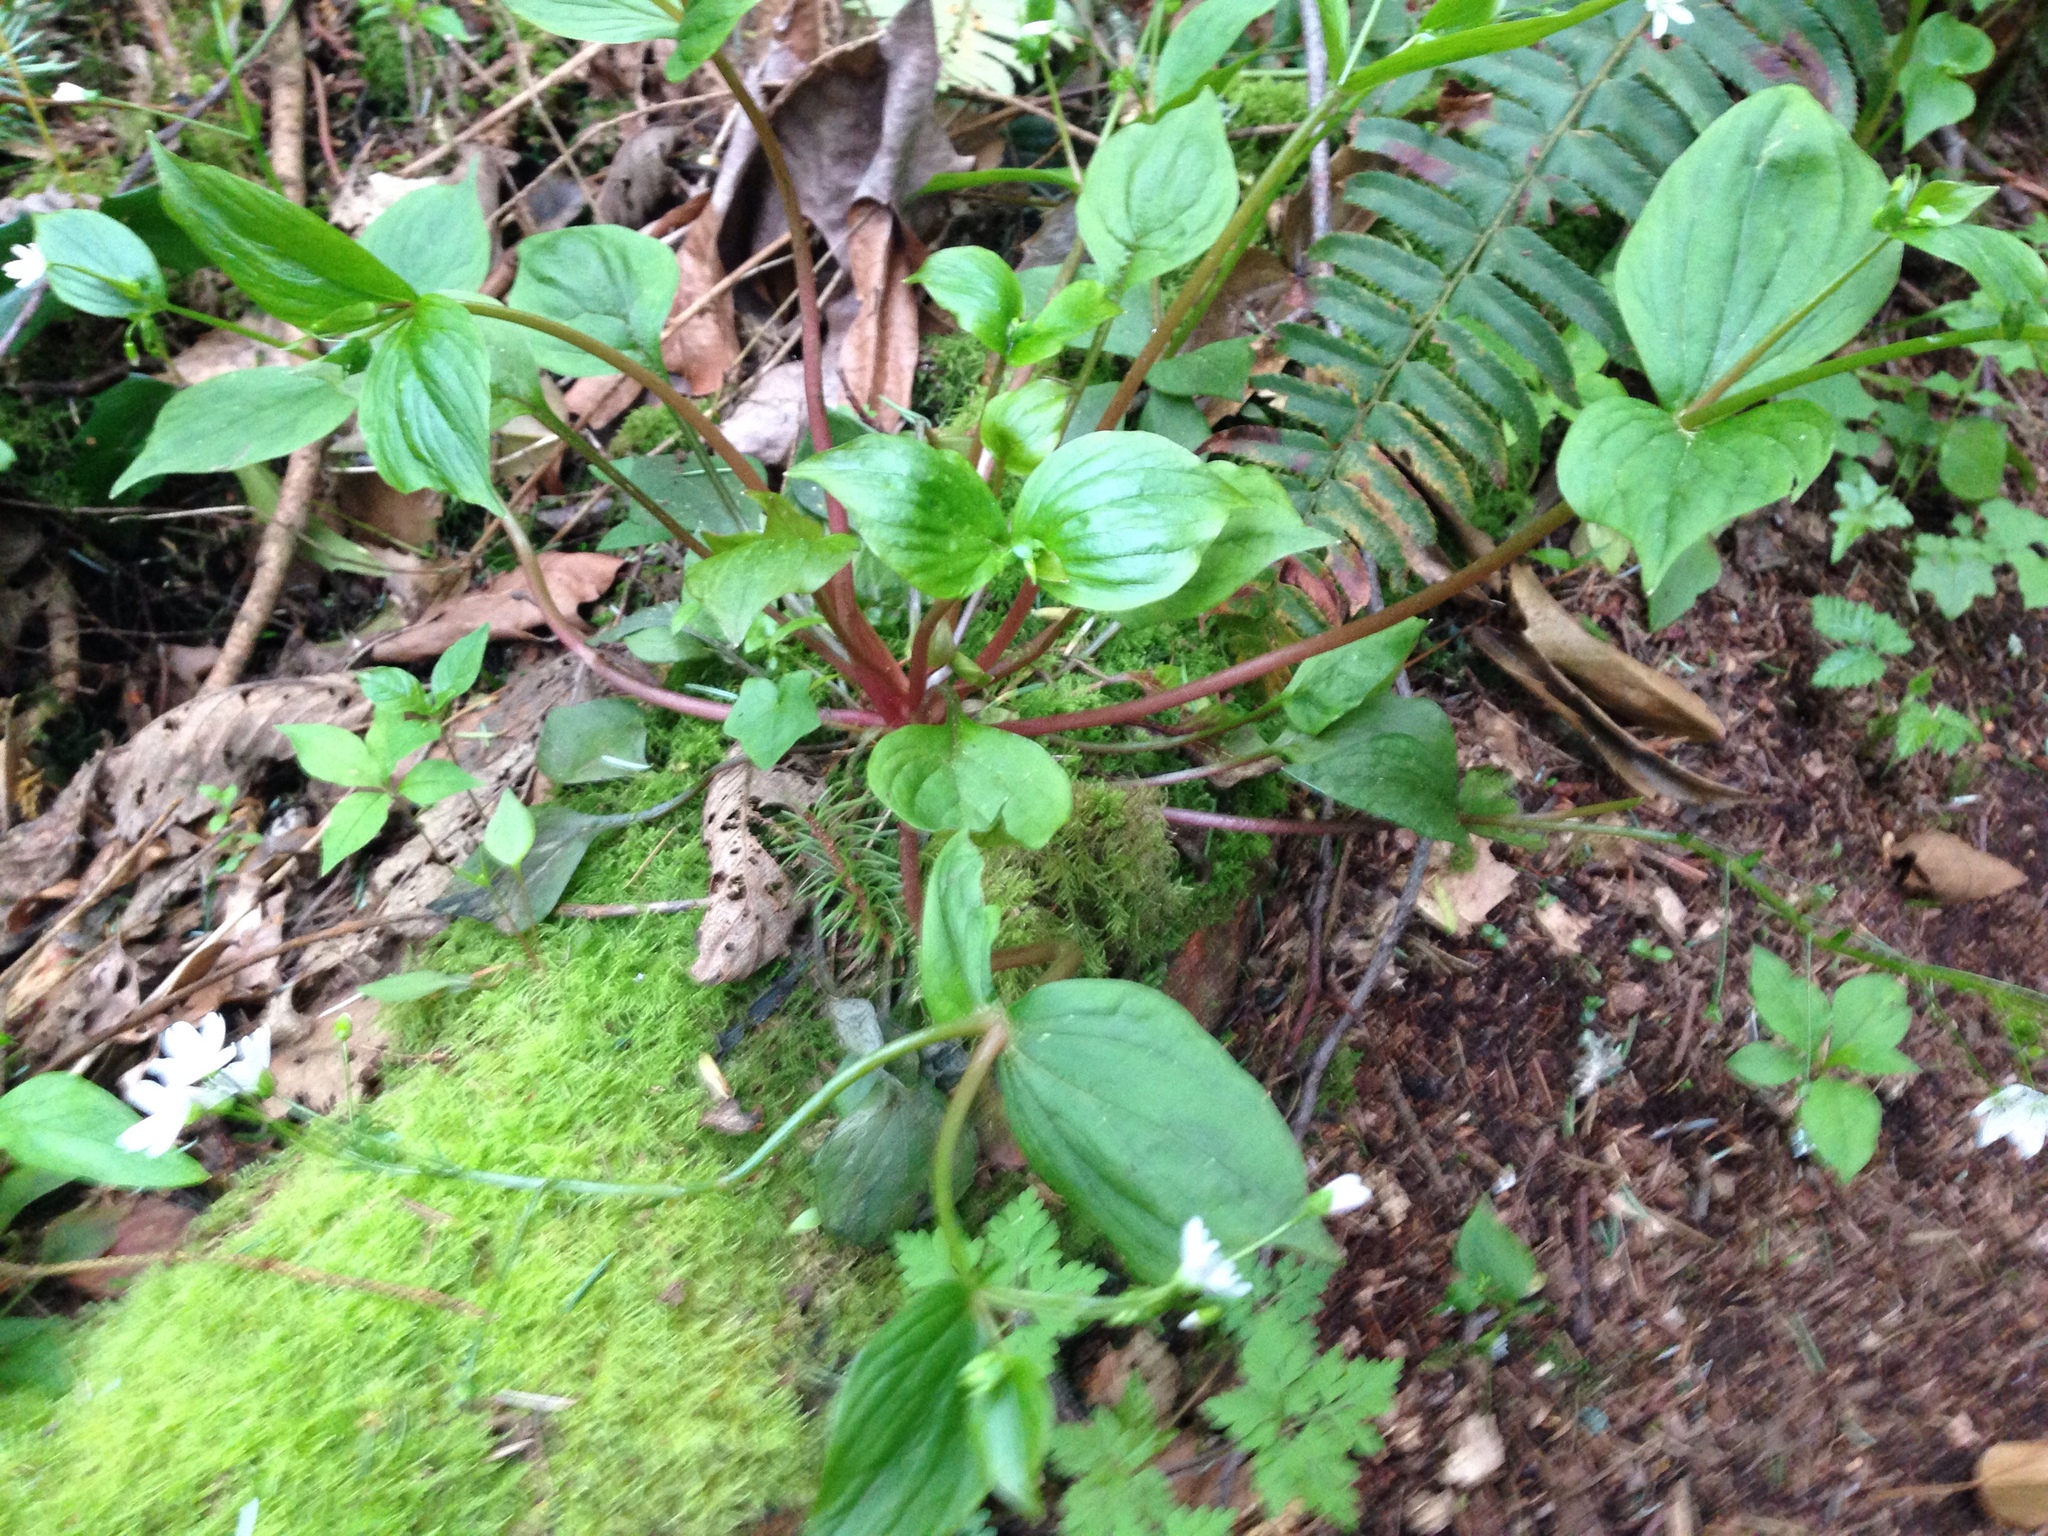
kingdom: Plantae
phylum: Tracheophyta
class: Magnoliopsida
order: Caryophyllales
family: Montiaceae
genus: Claytonia
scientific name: Claytonia sibirica
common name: Pink purslane
